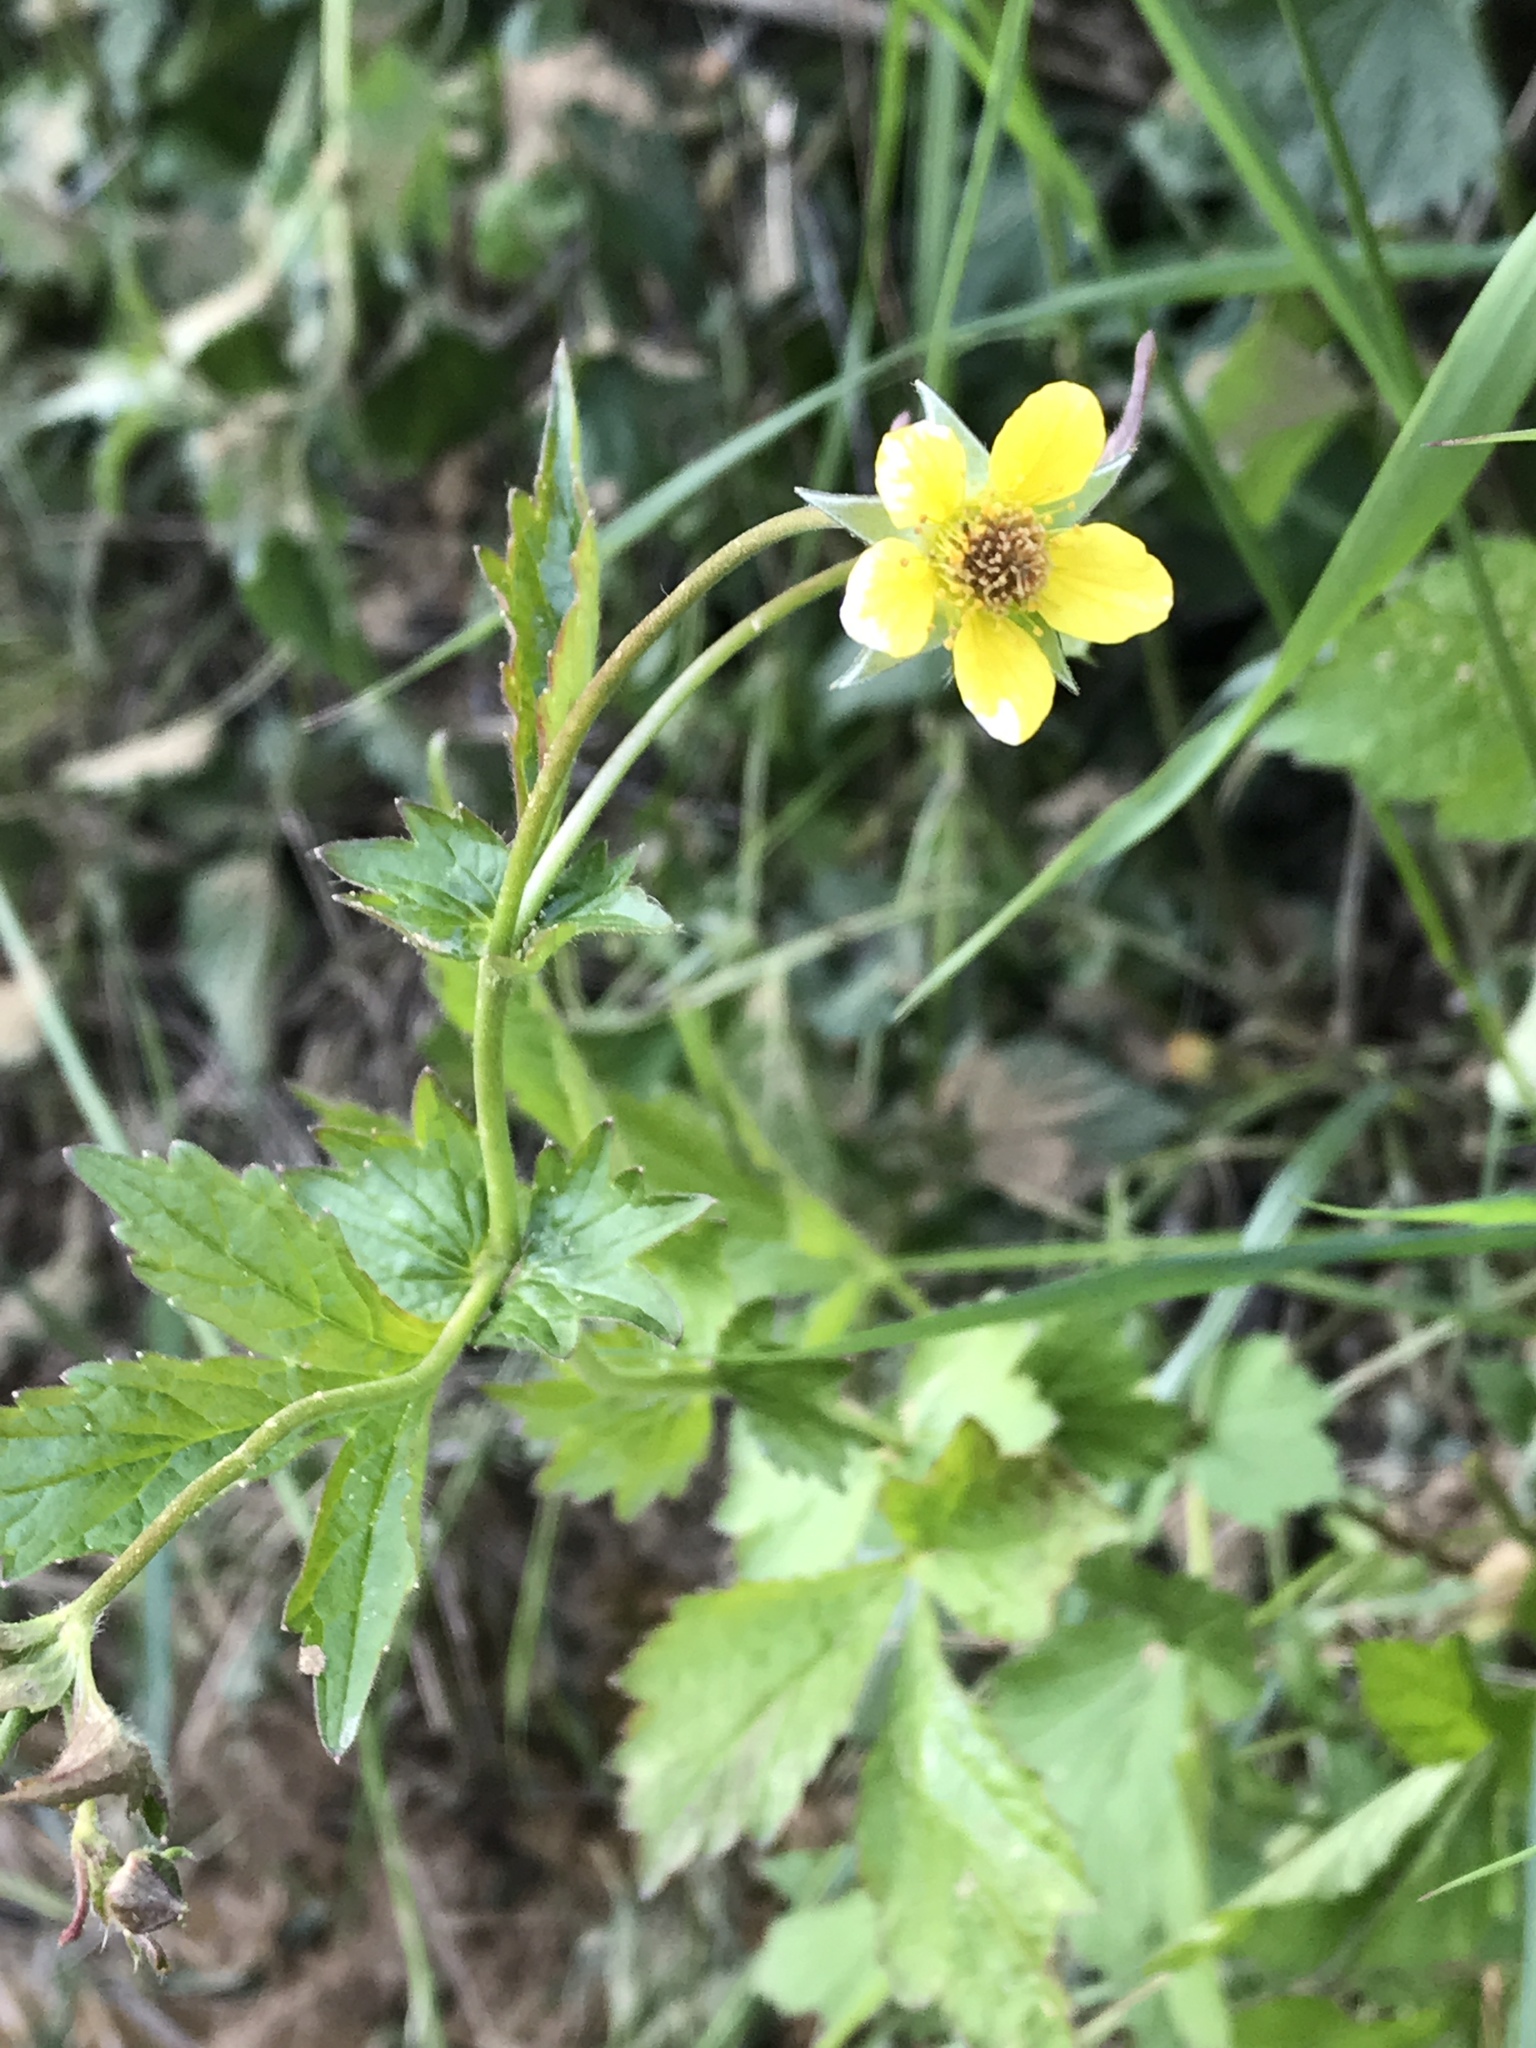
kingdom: Plantae
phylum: Tracheophyta
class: Magnoliopsida
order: Rosales
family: Rosaceae
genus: Geum
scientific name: Geum urbanum
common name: Wood avens
